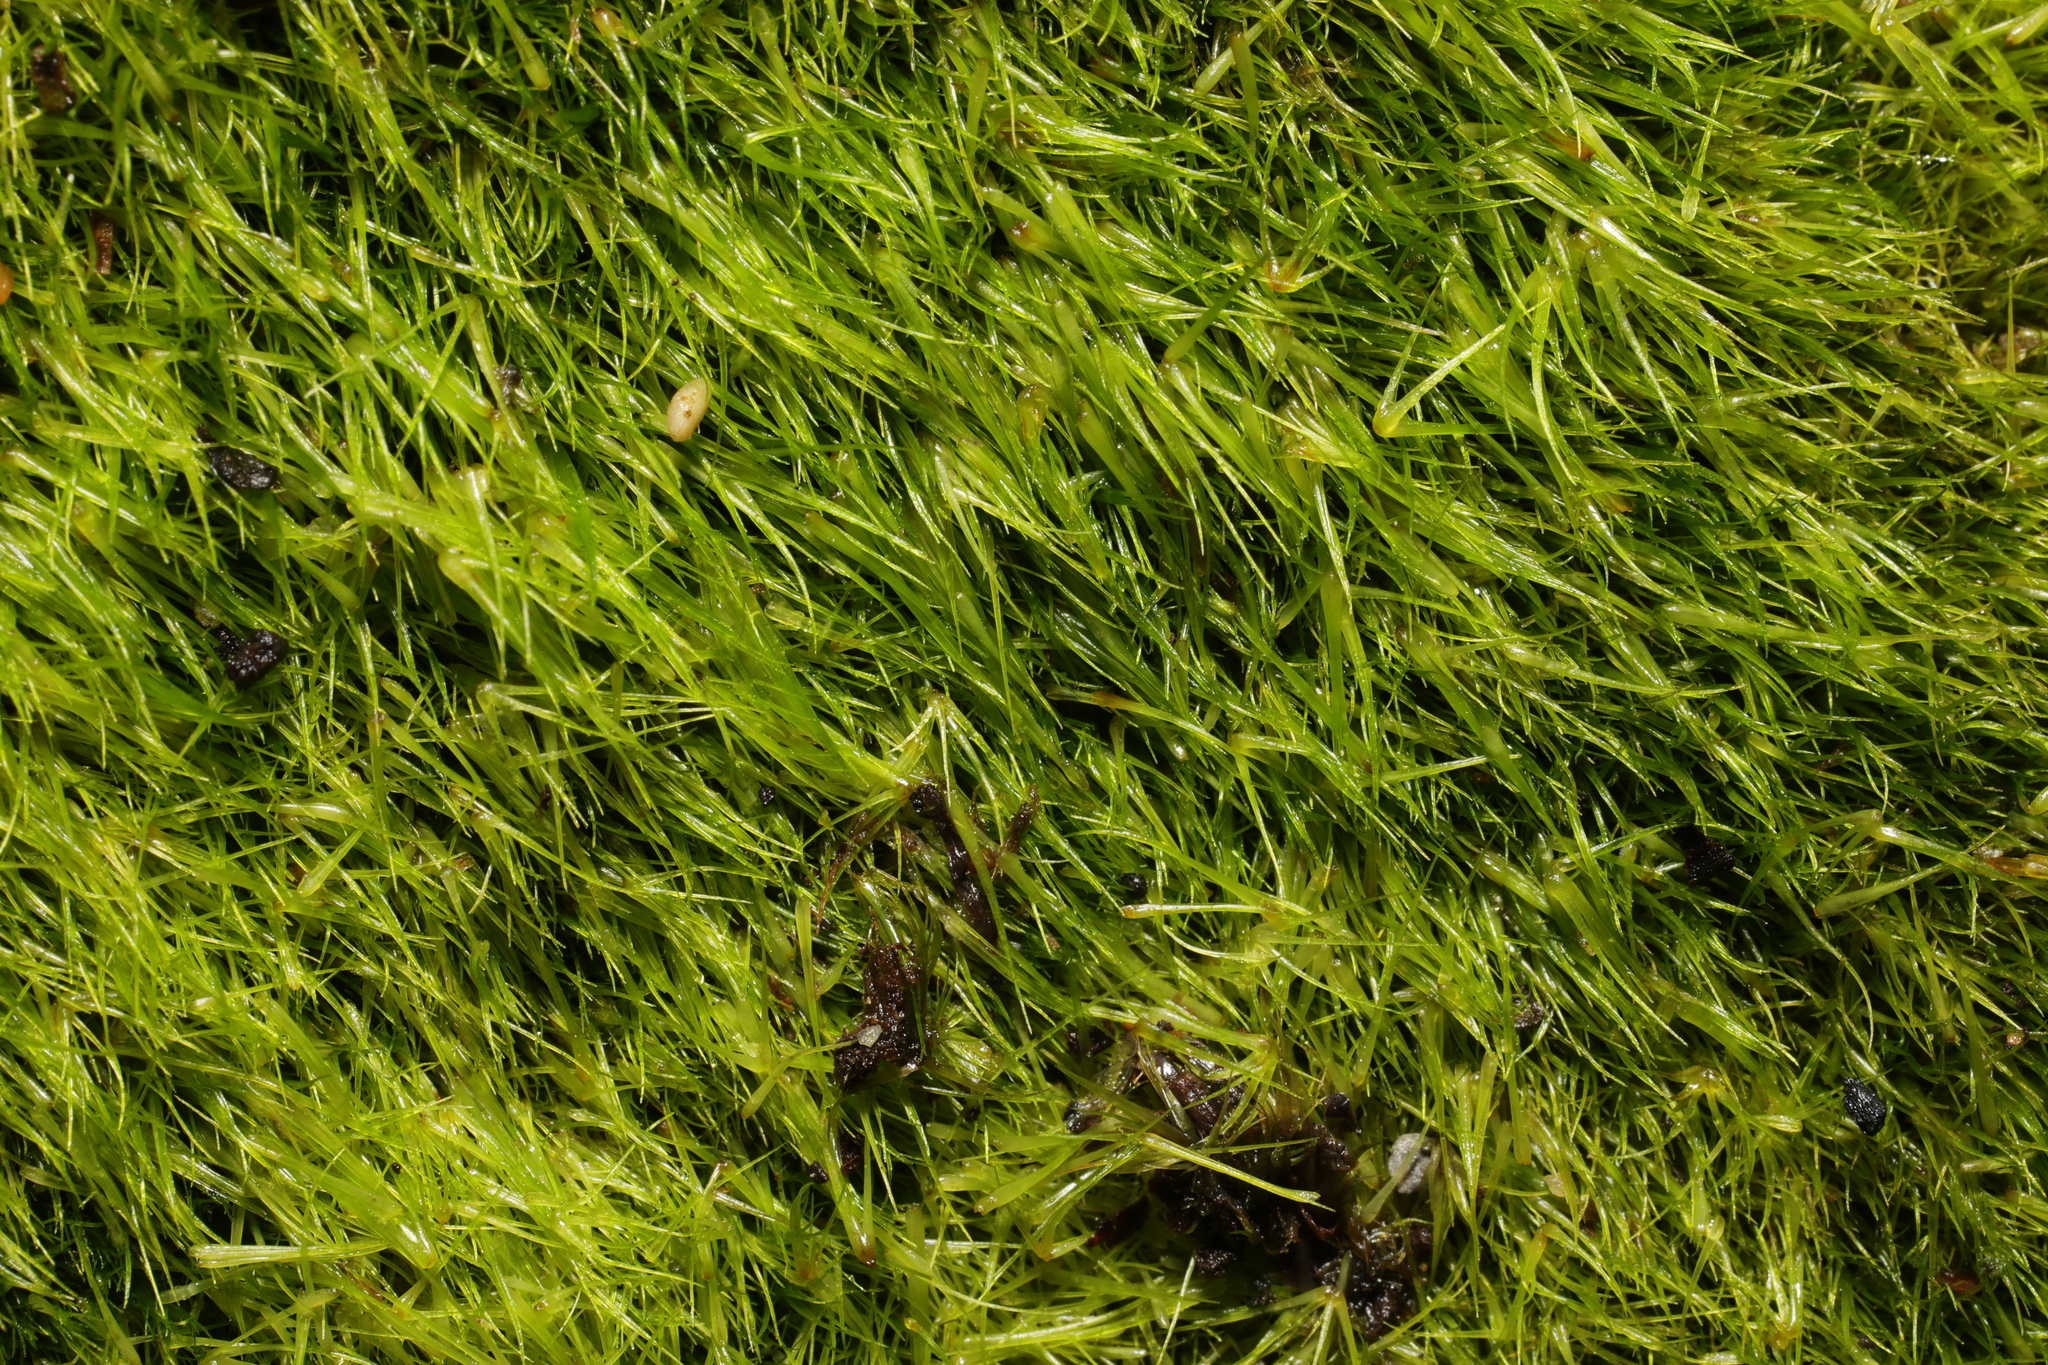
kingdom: Plantae
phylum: Bryophyta
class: Bryopsida
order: Dicranales
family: Leucobryaceae
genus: Campylopus
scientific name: Campylopus pyriformis
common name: Dwarf swan-neck moss
